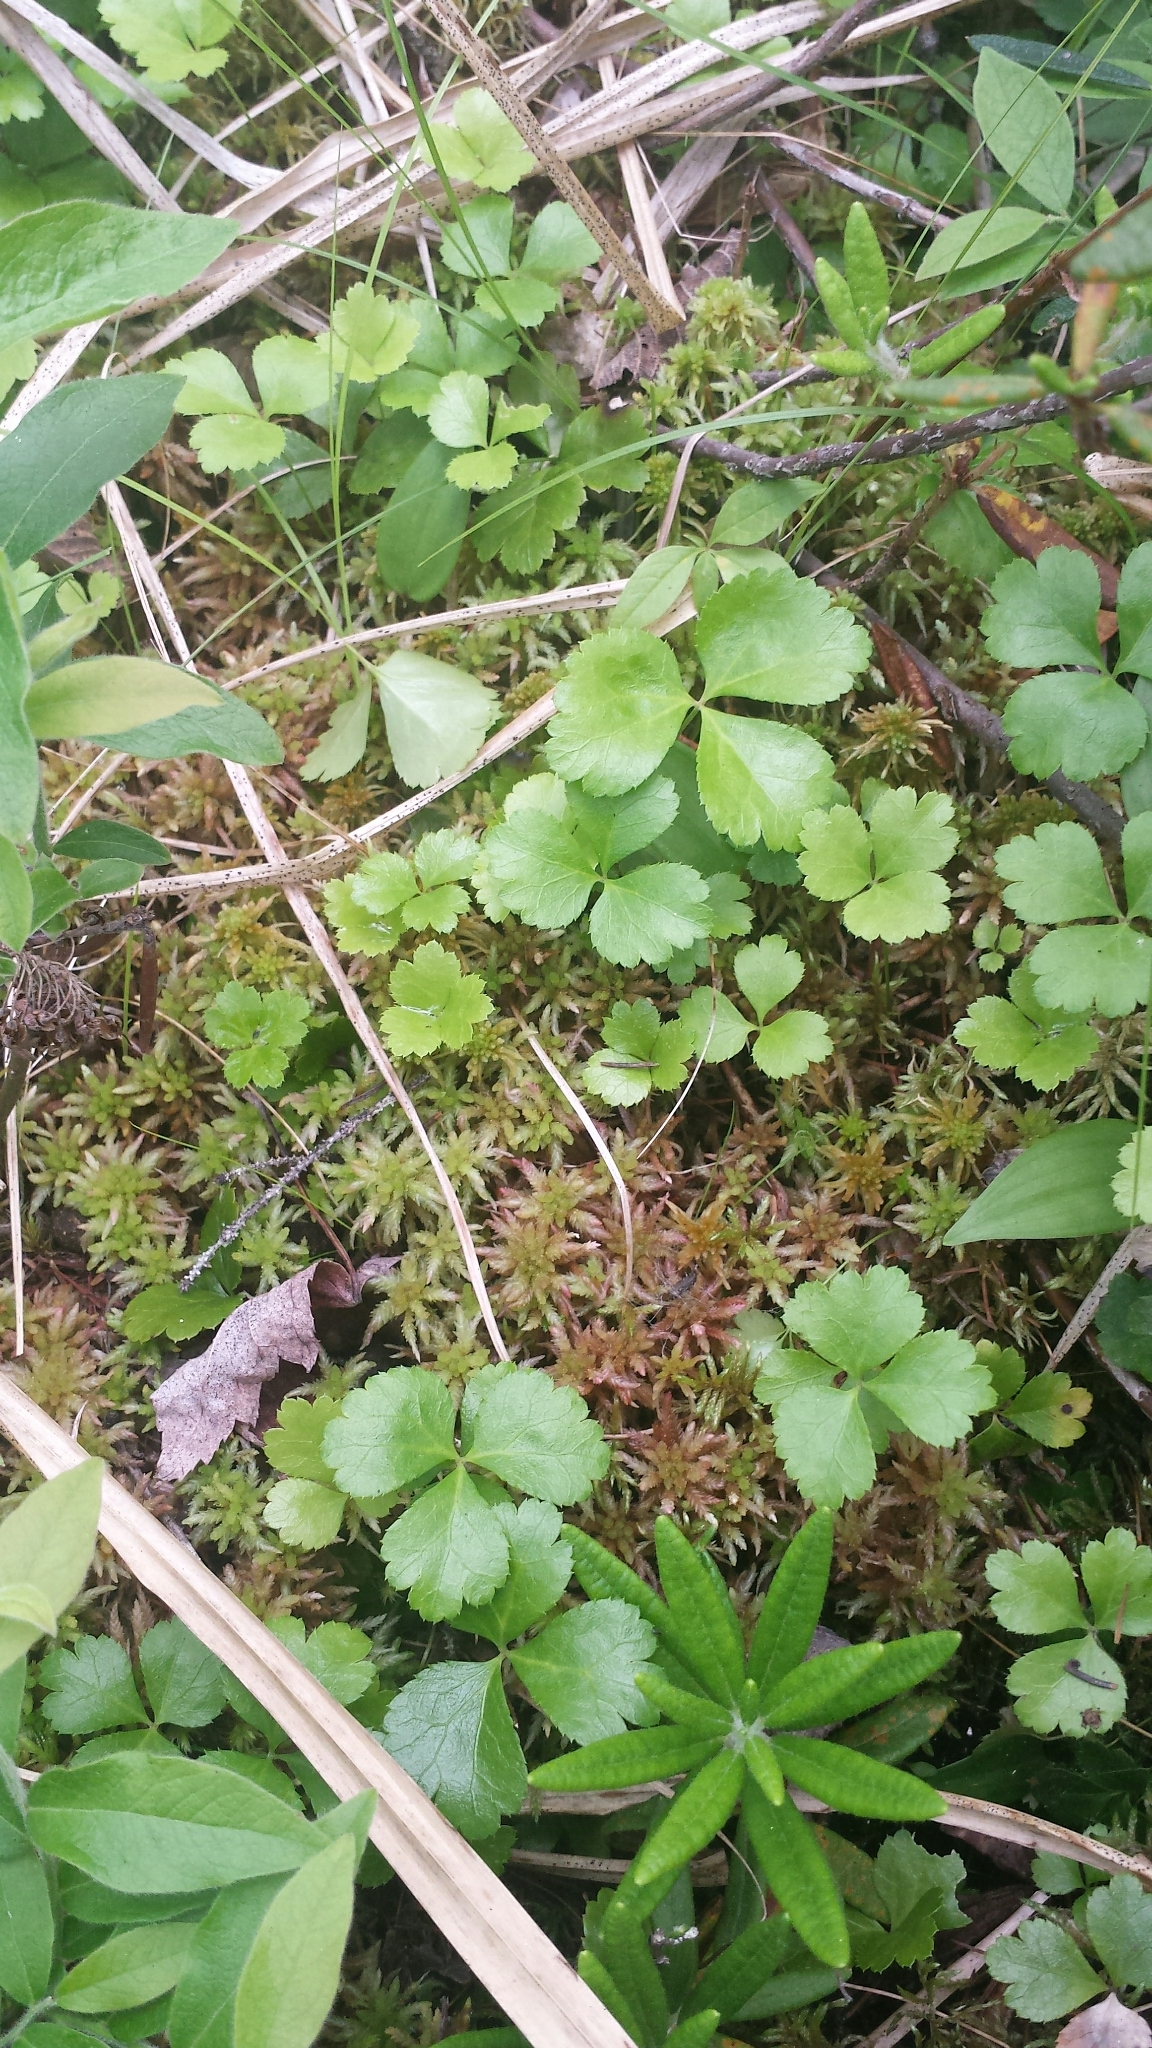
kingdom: Plantae
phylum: Tracheophyta
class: Magnoliopsida
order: Ranunculales
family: Ranunculaceae
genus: Coptis
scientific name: Coptis trifolia
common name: Canker-root
